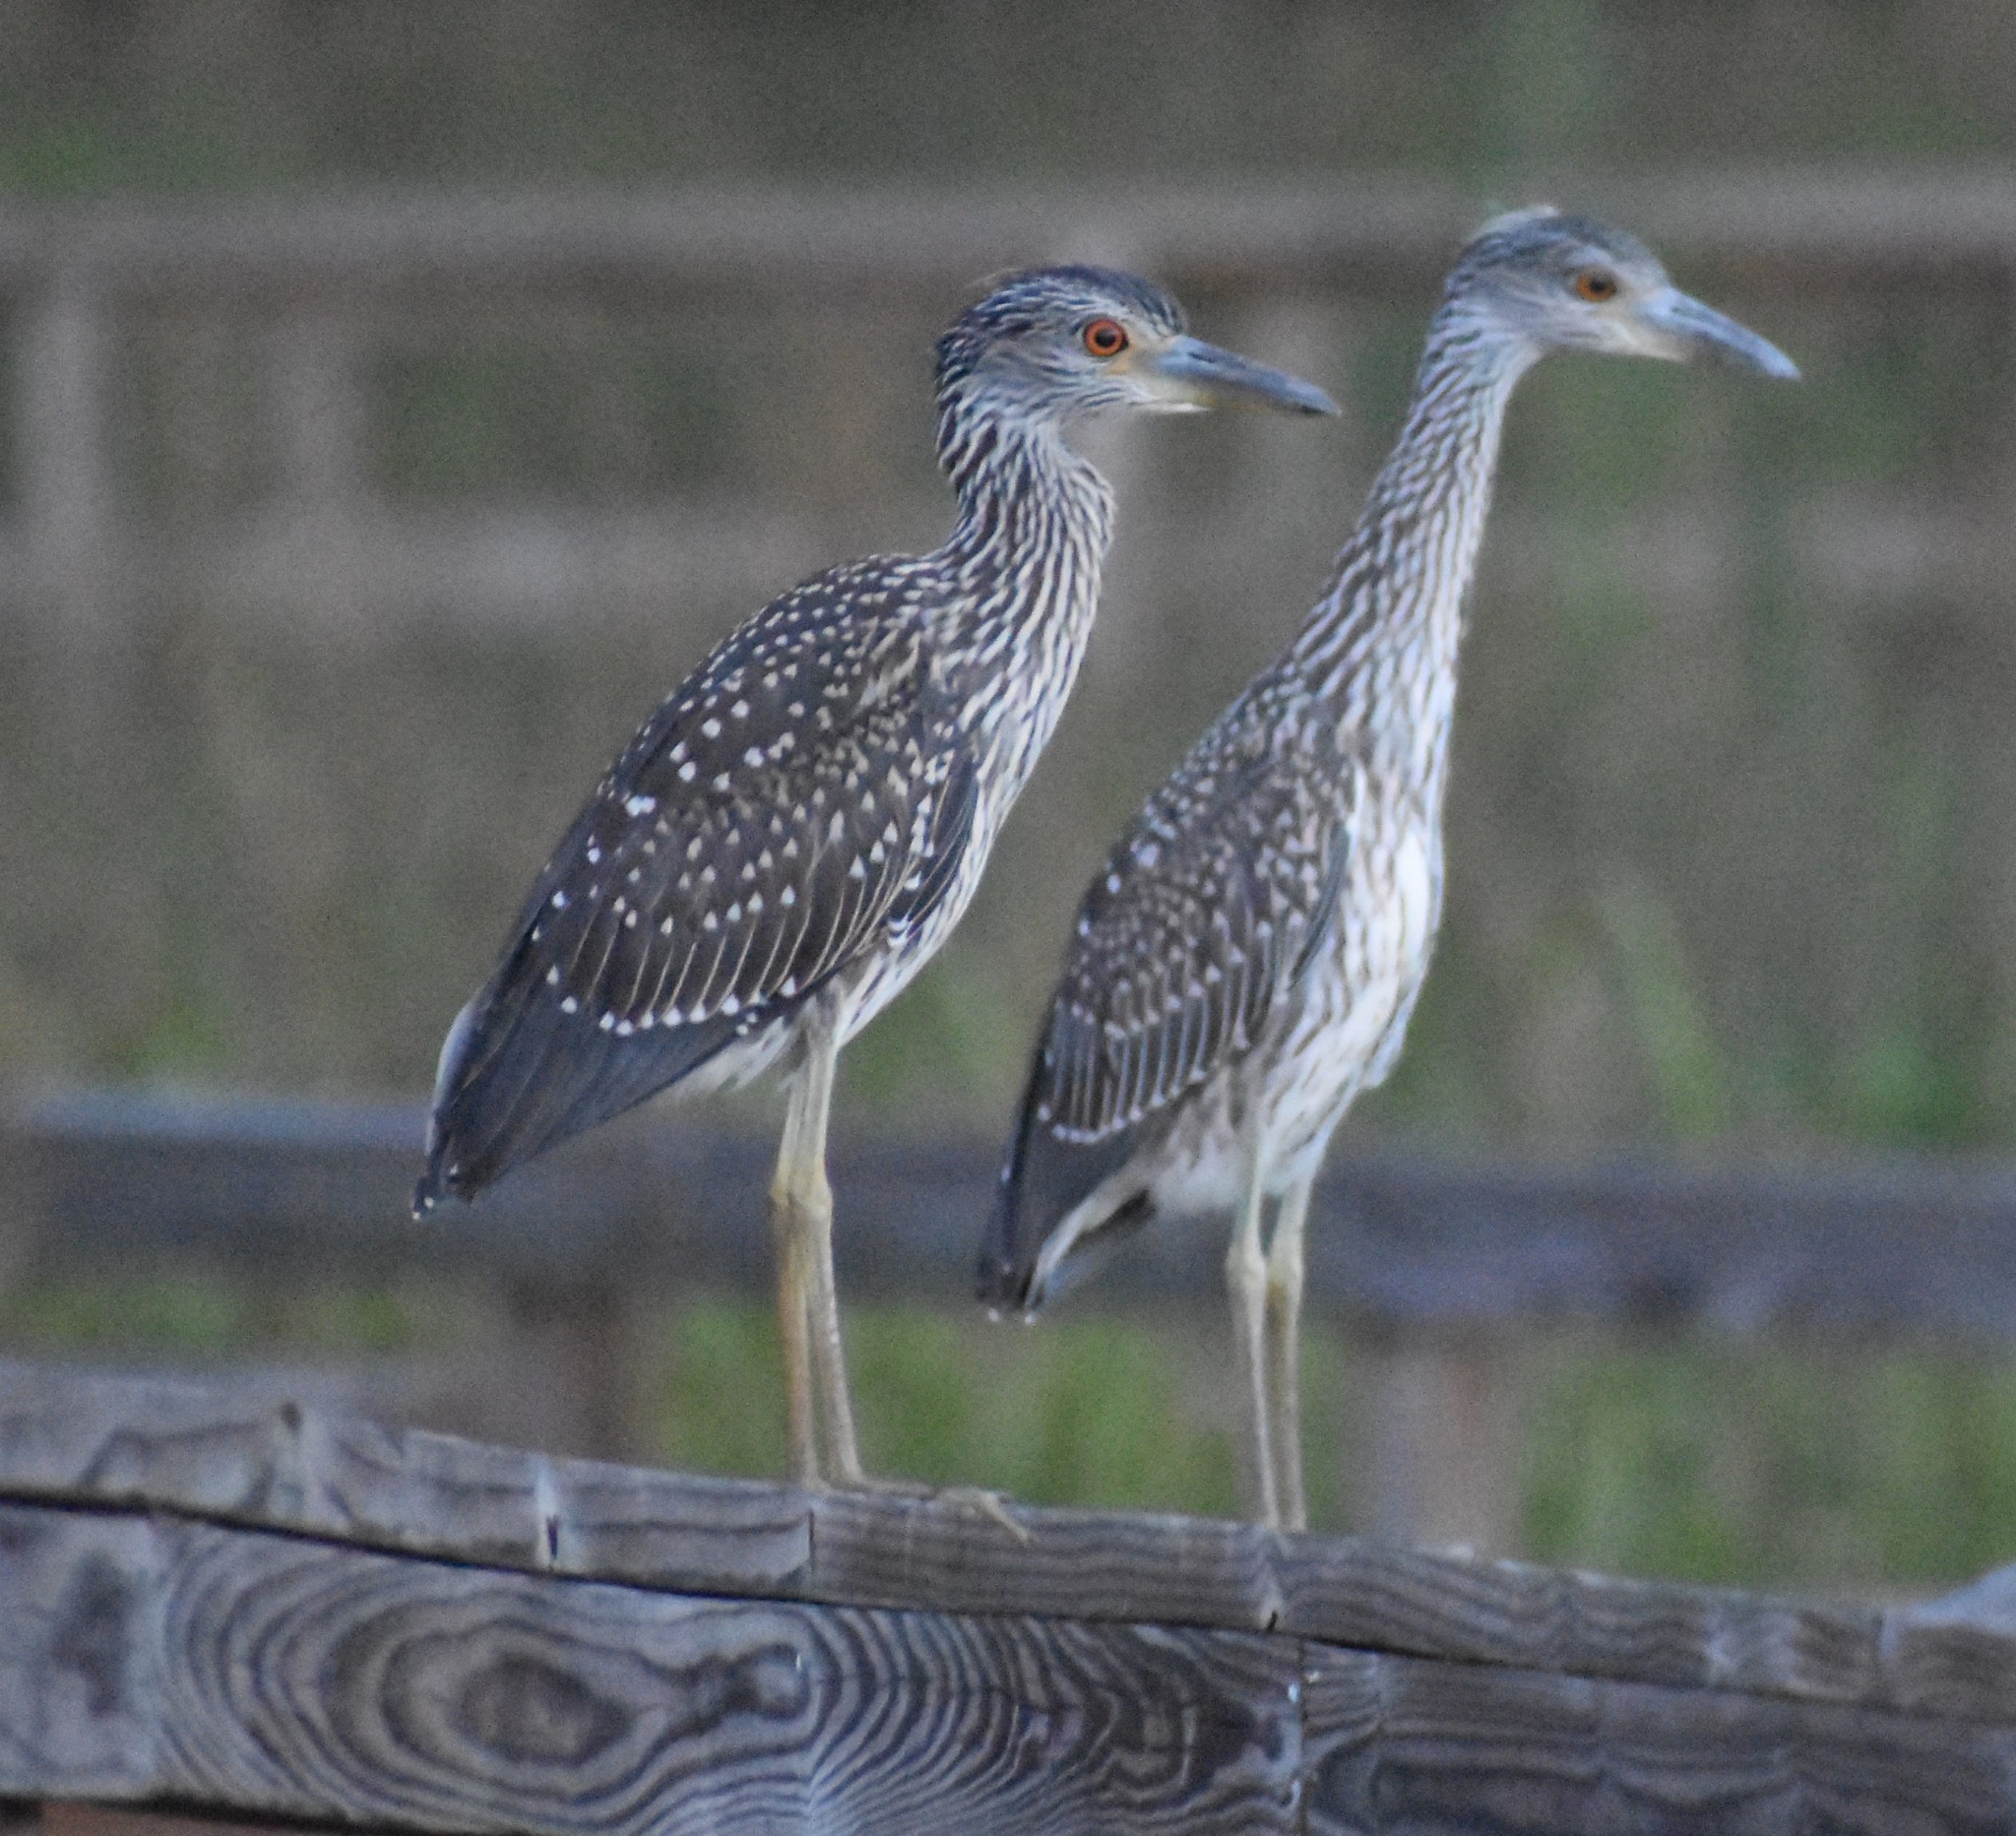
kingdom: Animalia
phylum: Chordata
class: Aves
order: Pelecaniformes
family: Ardeidae
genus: Nyctanassa
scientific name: Nyctanassa violacea
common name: Yellow-crowned night heron
